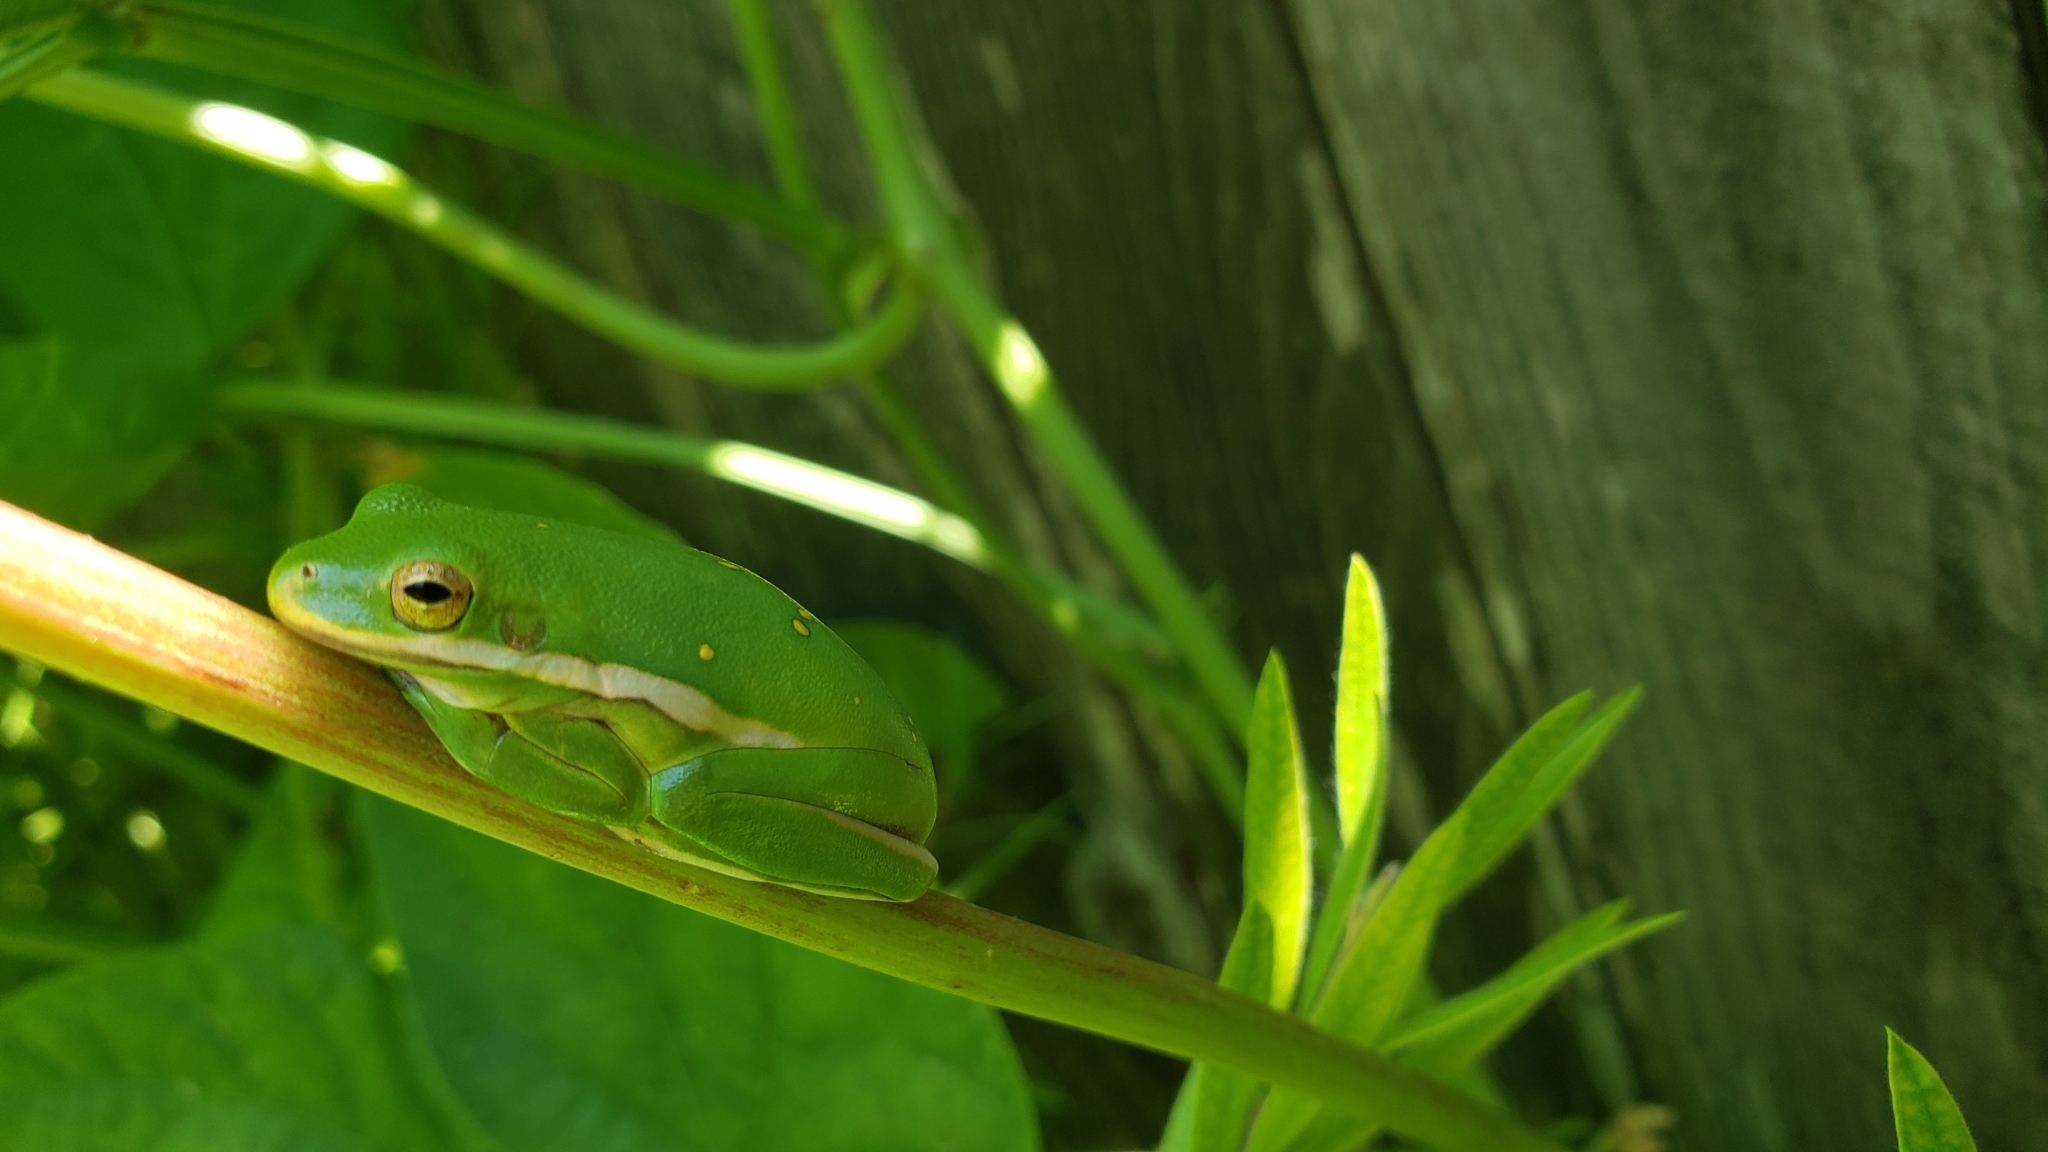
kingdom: Animalia
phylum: Chordata
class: Amphibia
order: Anura
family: Hylidae
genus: Dryophytes
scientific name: Dryophytes cinereus
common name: Green treefrog
